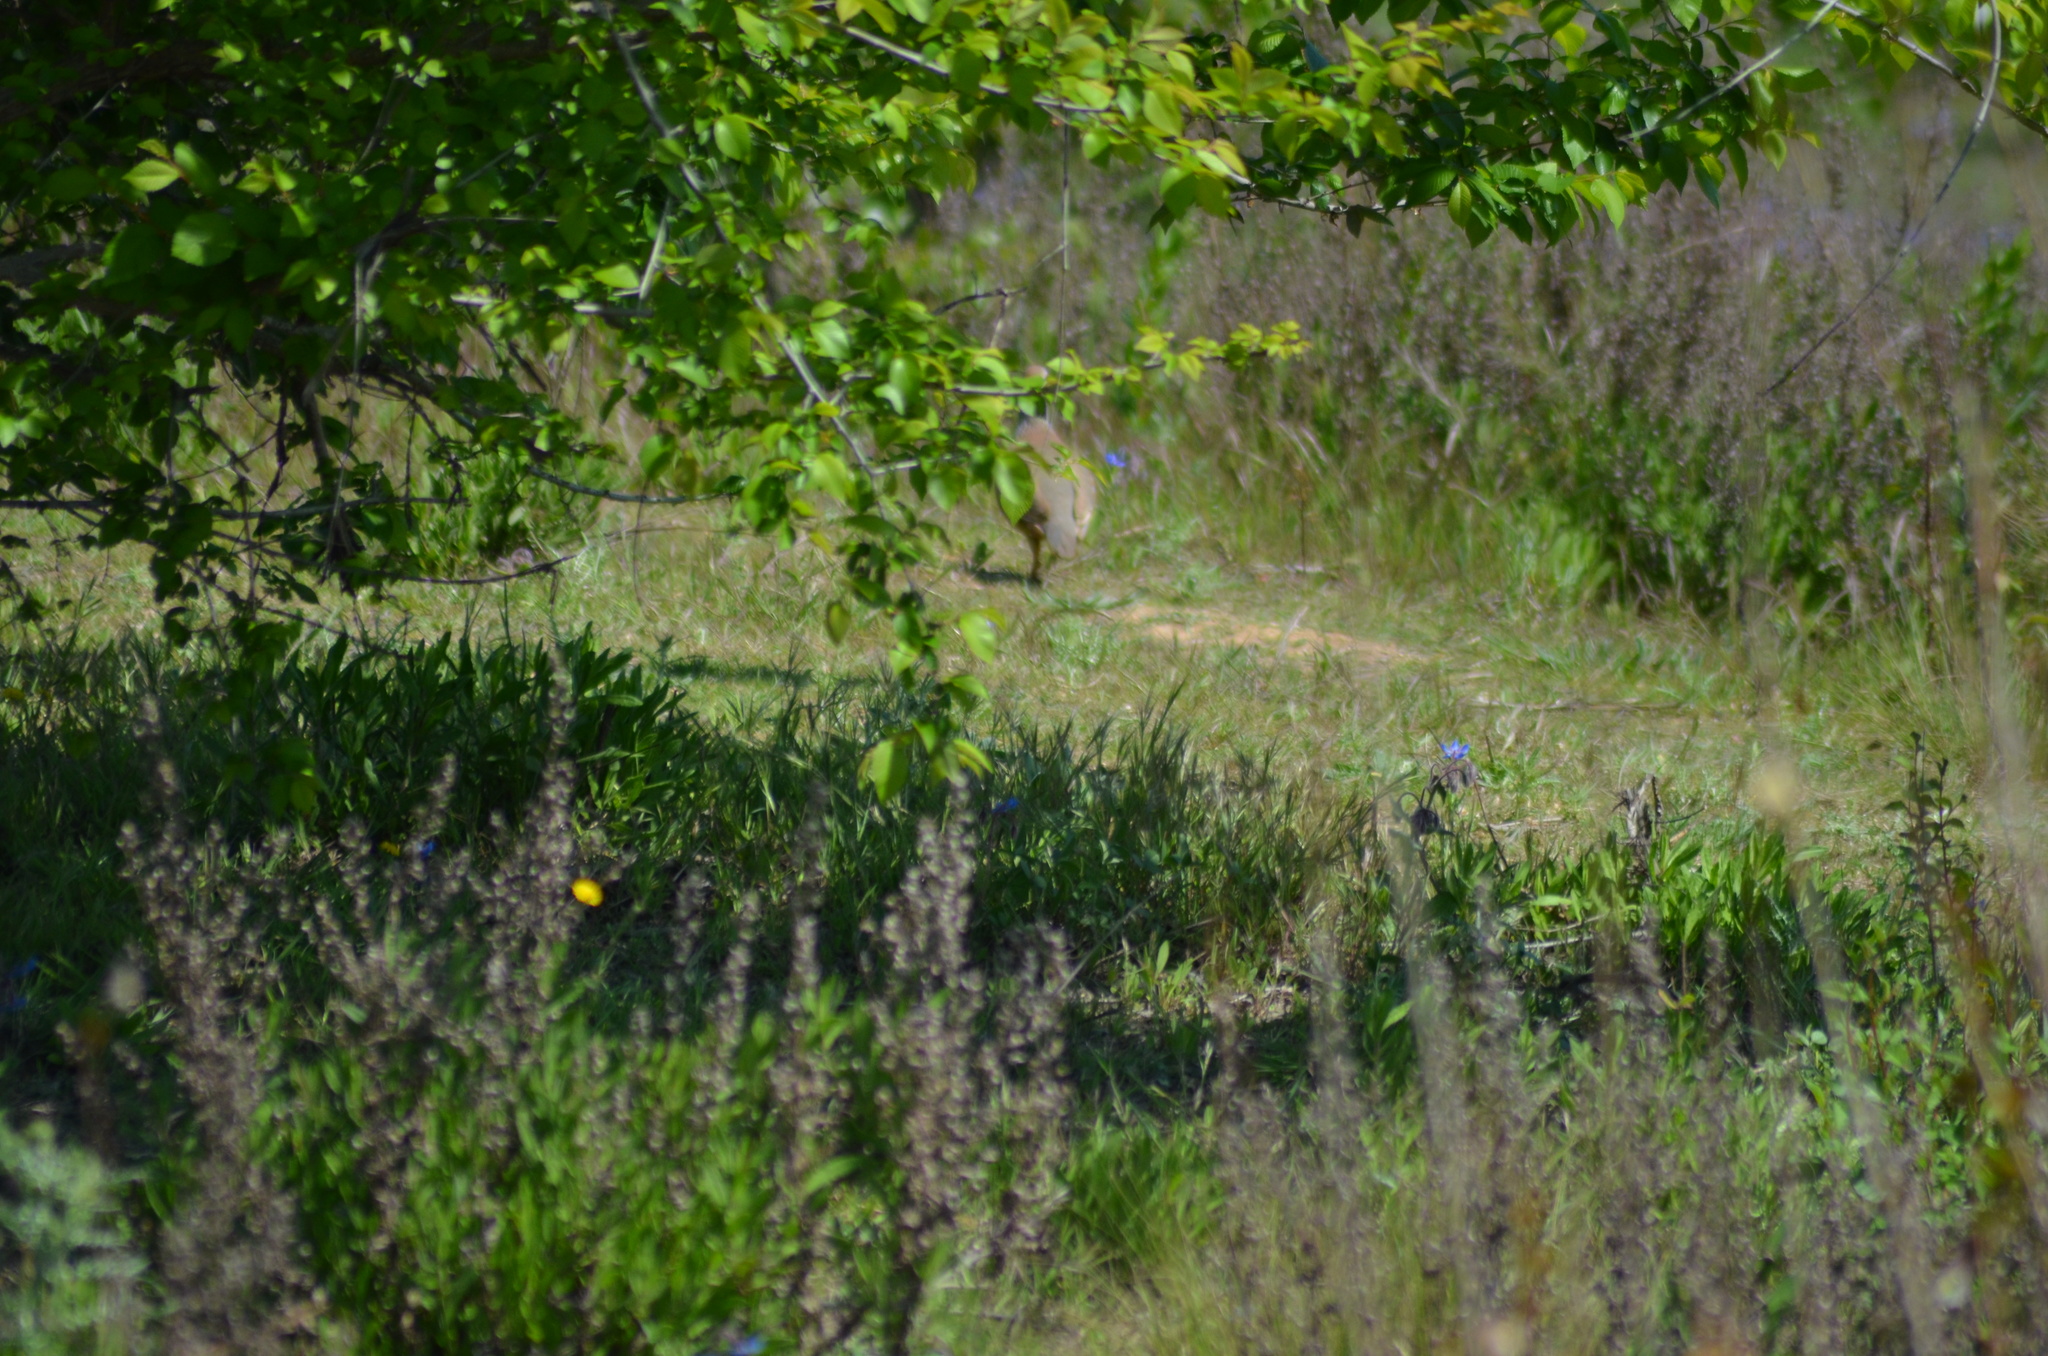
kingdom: Animalia
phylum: Chordata
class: Aves
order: Galliformes
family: Phasianidae
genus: Alectoris
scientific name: Alectoris rufa
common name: Red-legged partridge
